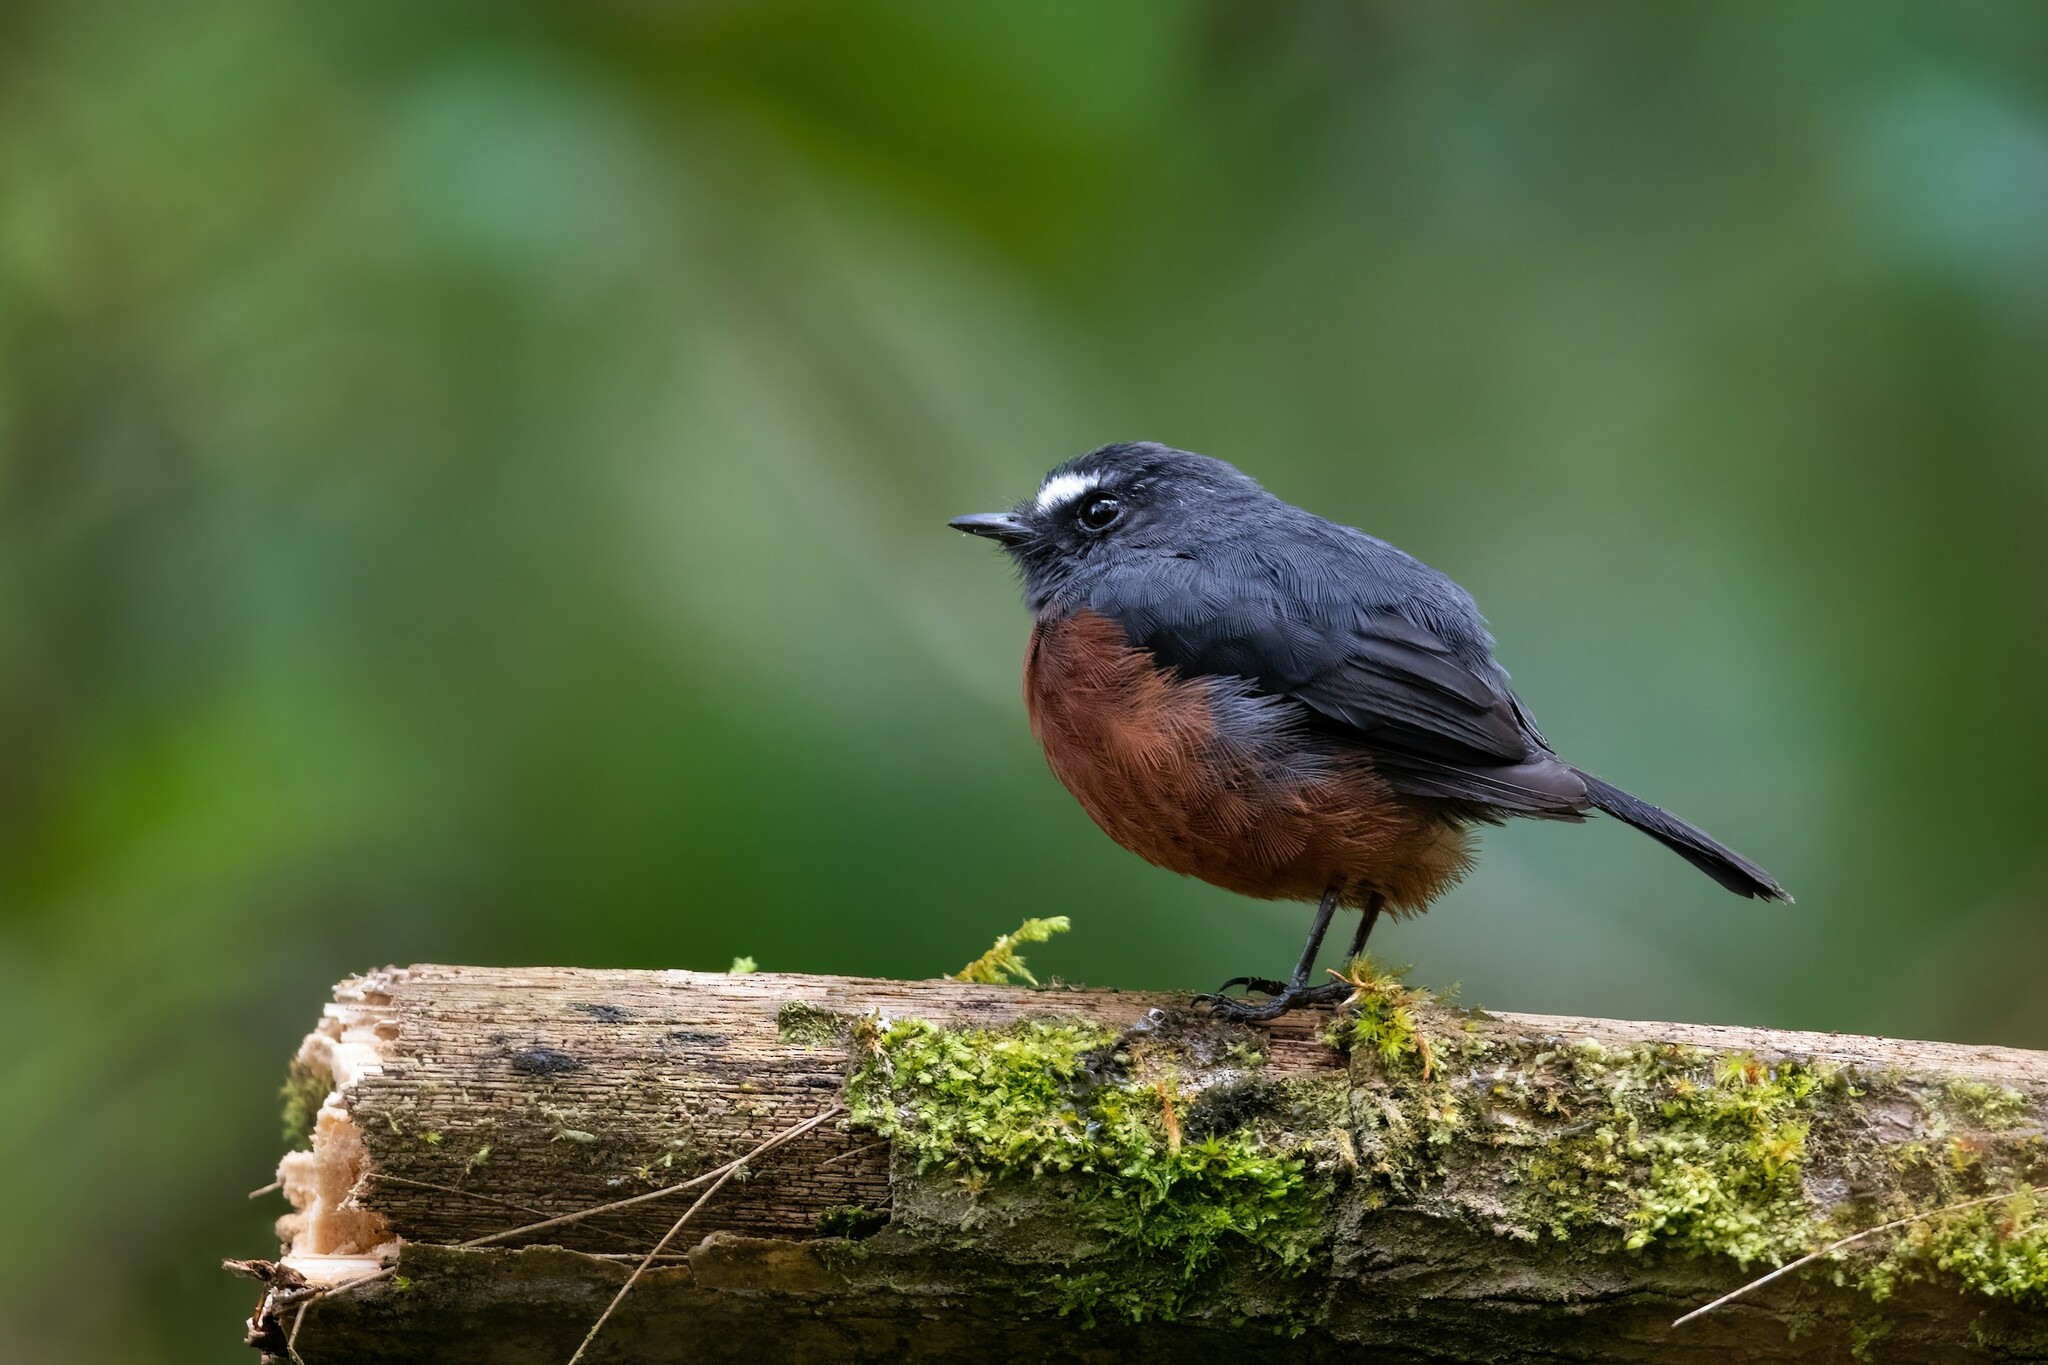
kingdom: Animalia
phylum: Chordata
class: Aves
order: Passeriformes
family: Tyrannidae
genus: Ochthoeca
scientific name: Ochthoeca cinnamomeiventris
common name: Slaty-backed chat-tyrant
